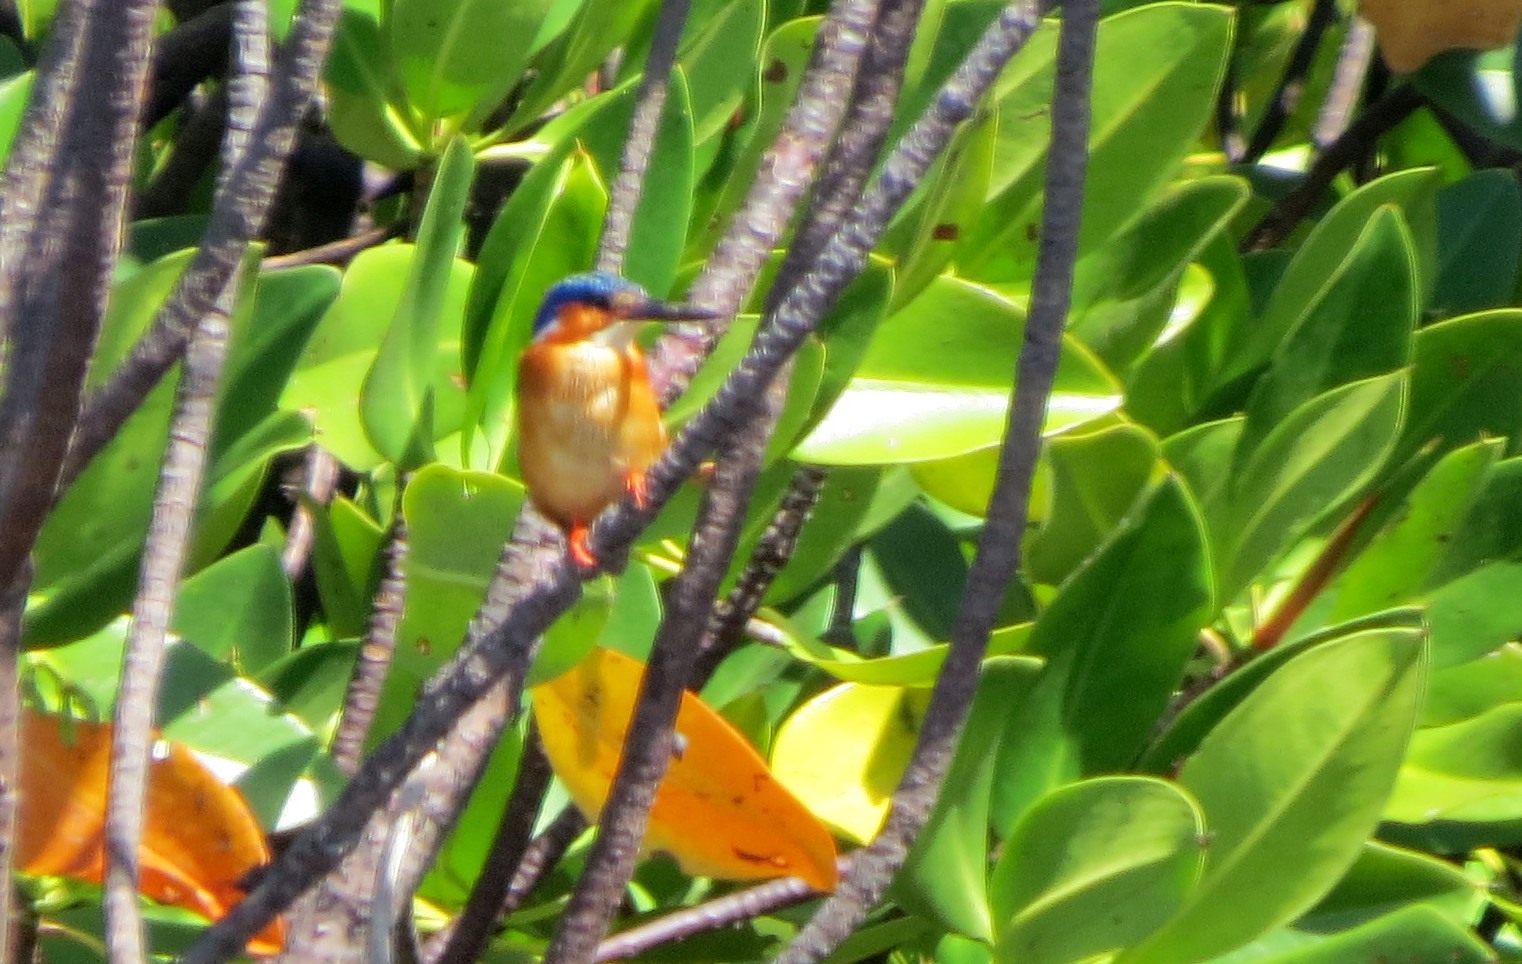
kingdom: Animalia
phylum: Chordata
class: Aves
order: Coraciiformes
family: Alcedinidae
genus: Corythornis
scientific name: Corythornis vintsioides
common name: Malagasy kingfisher
